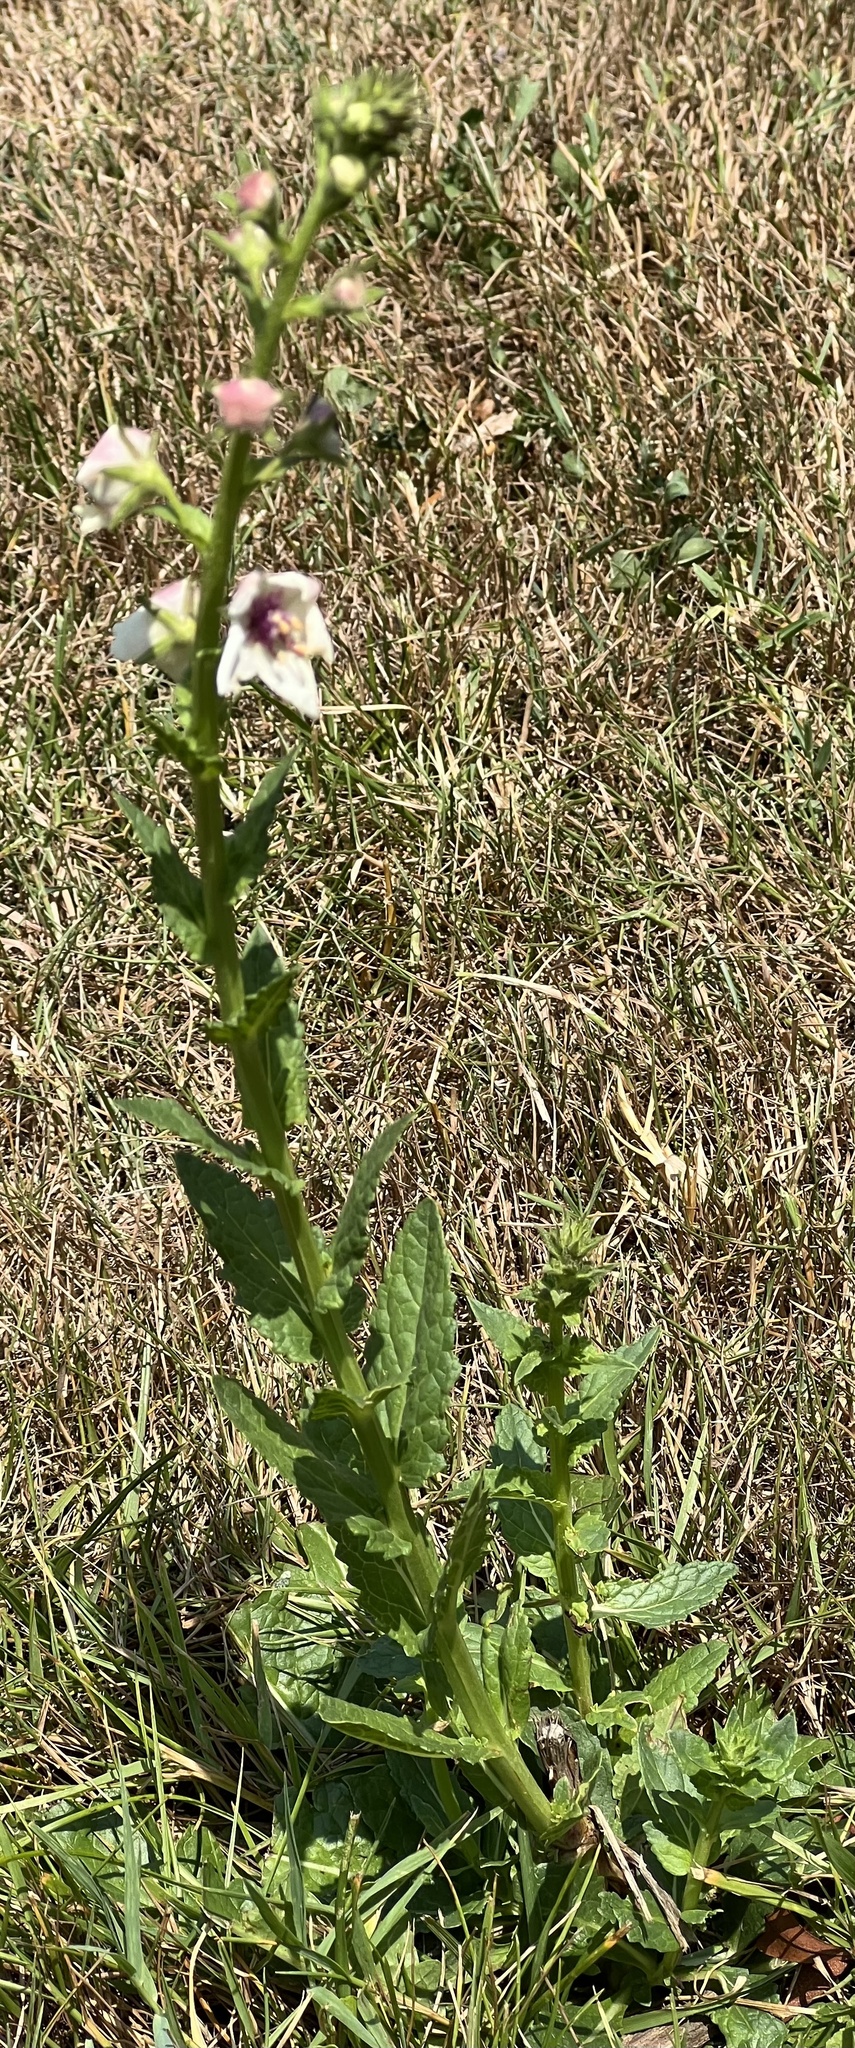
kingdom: Plantae
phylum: Tracheophyta
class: Magnoliopsida
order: Lamiales
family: Scrophulariaceae
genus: Verbascum
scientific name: Verbascum blattaria
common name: Moth mullein
